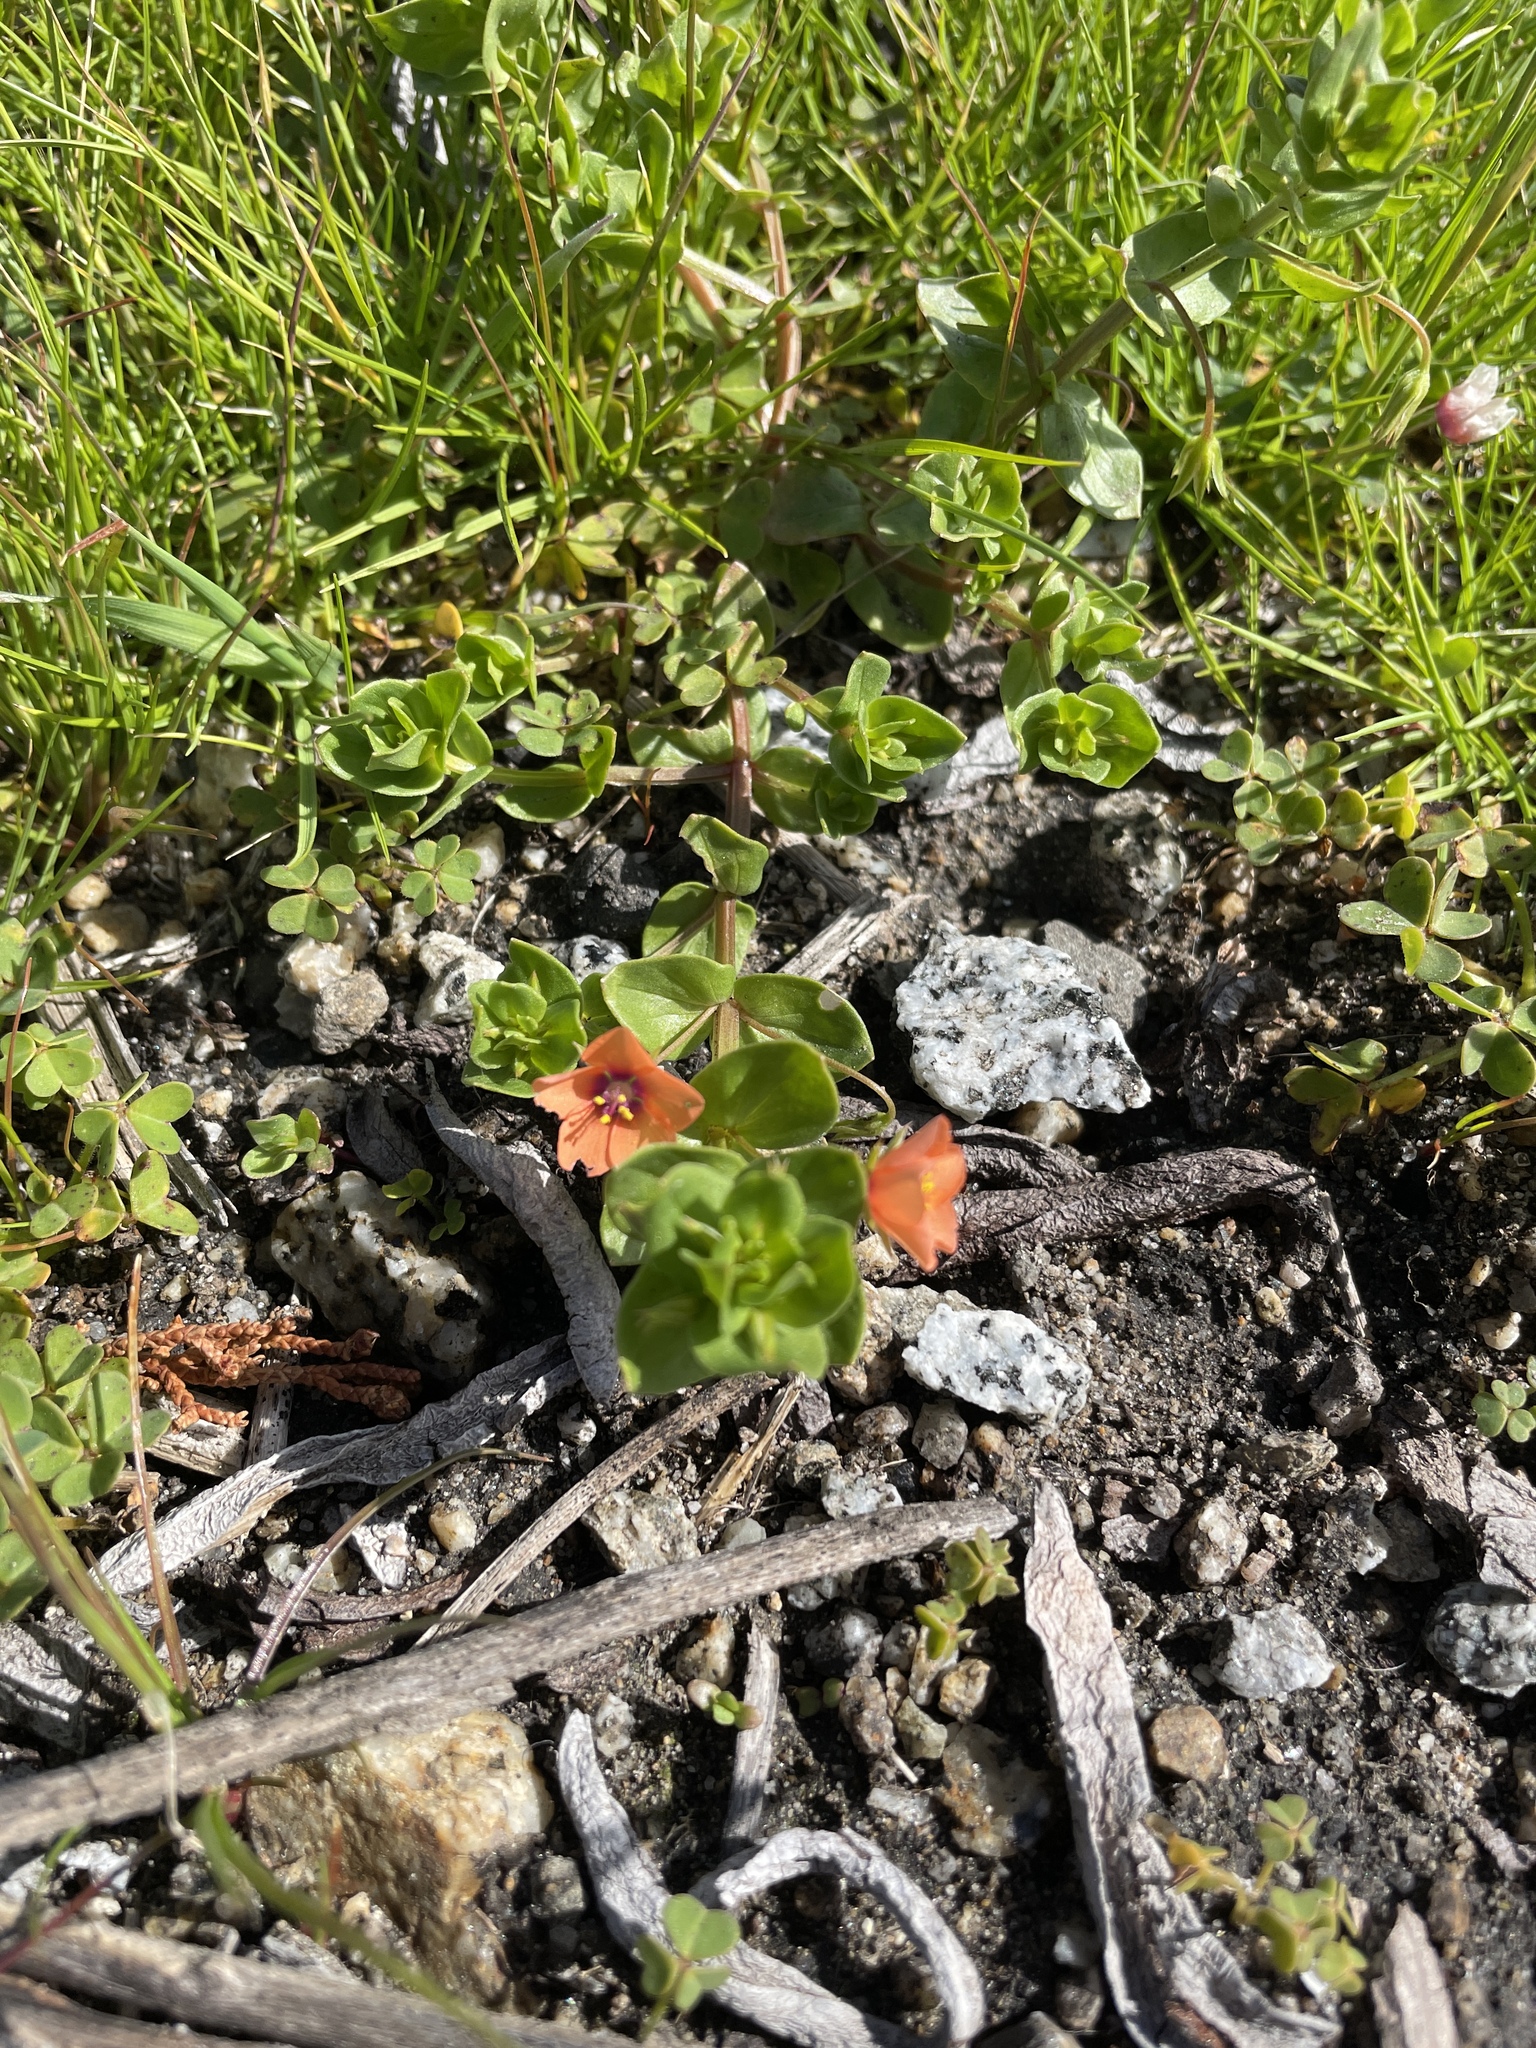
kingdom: Plantae
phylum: Tracheophyta
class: Magnoliopsida
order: Ericales
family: Primulaceae
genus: Lysimachia
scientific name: Lysimachia arvensis
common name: Scarlet pimpernel
